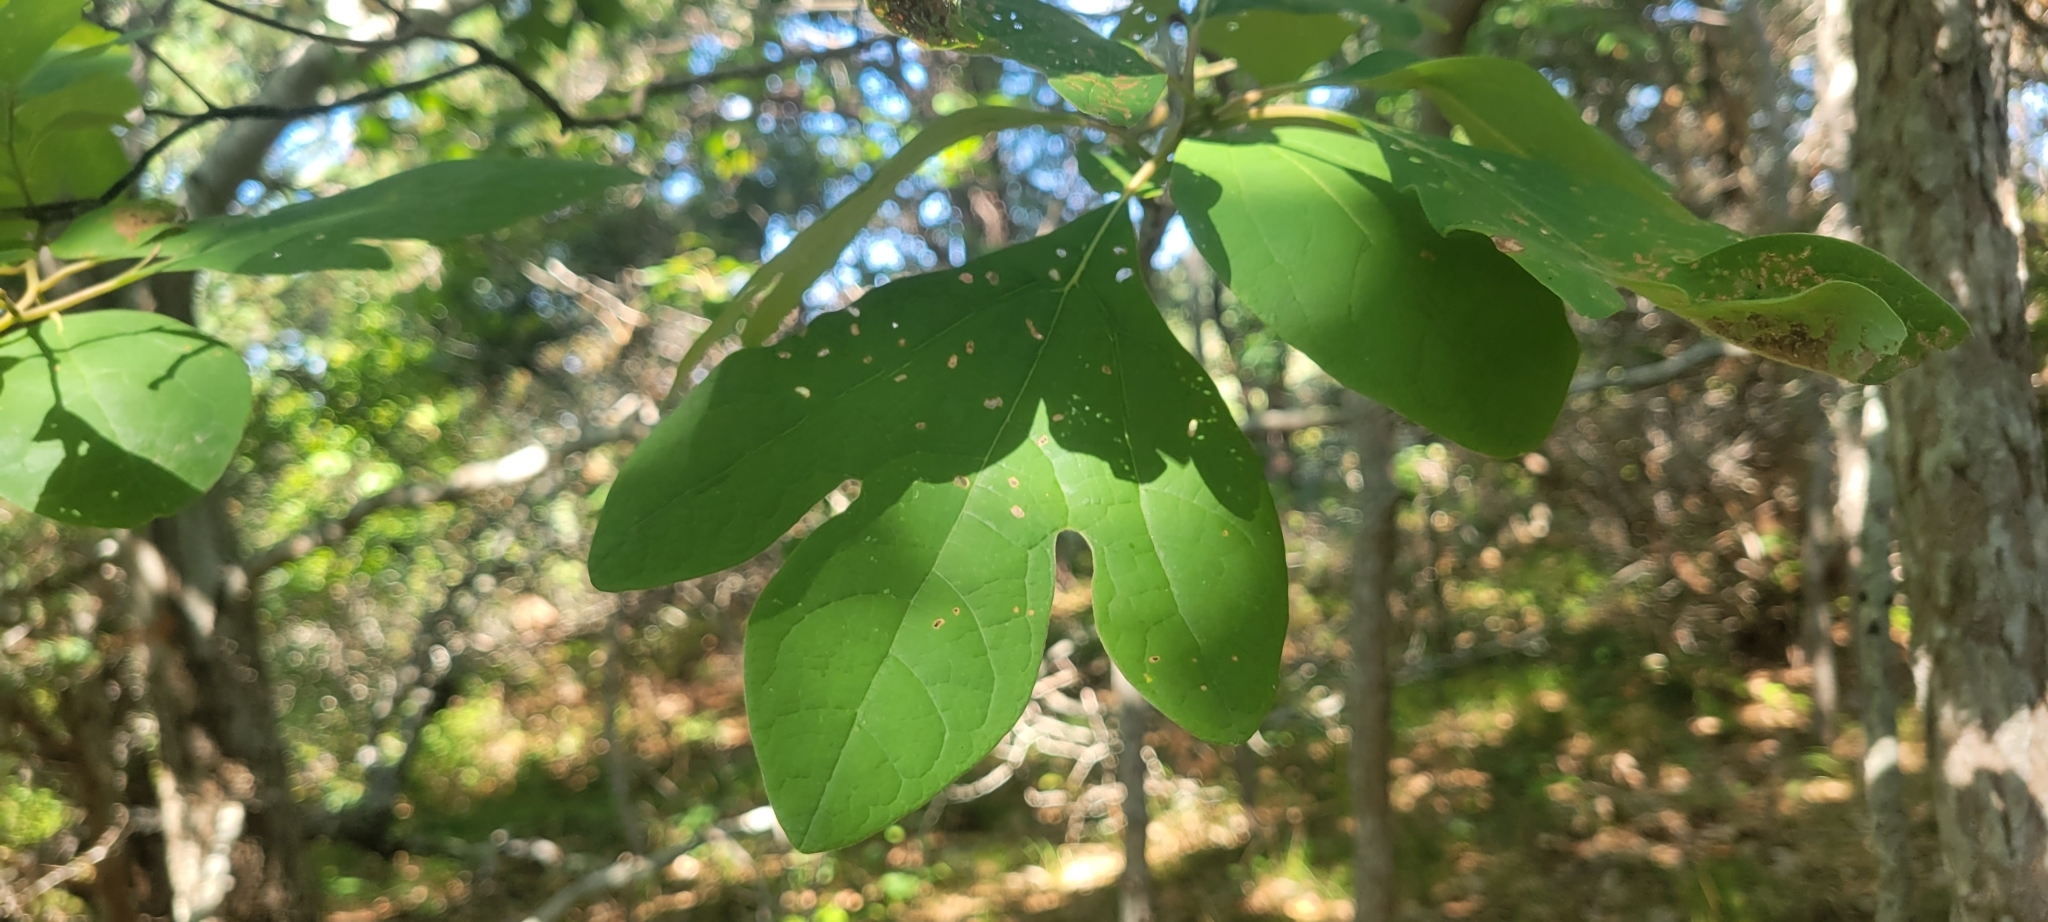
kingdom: Plantae
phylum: Tracheophyta
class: Magnoliopsida
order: Laurales
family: Lauraceae
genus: Sassafras
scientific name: Sassafras albidum
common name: Sassafras
